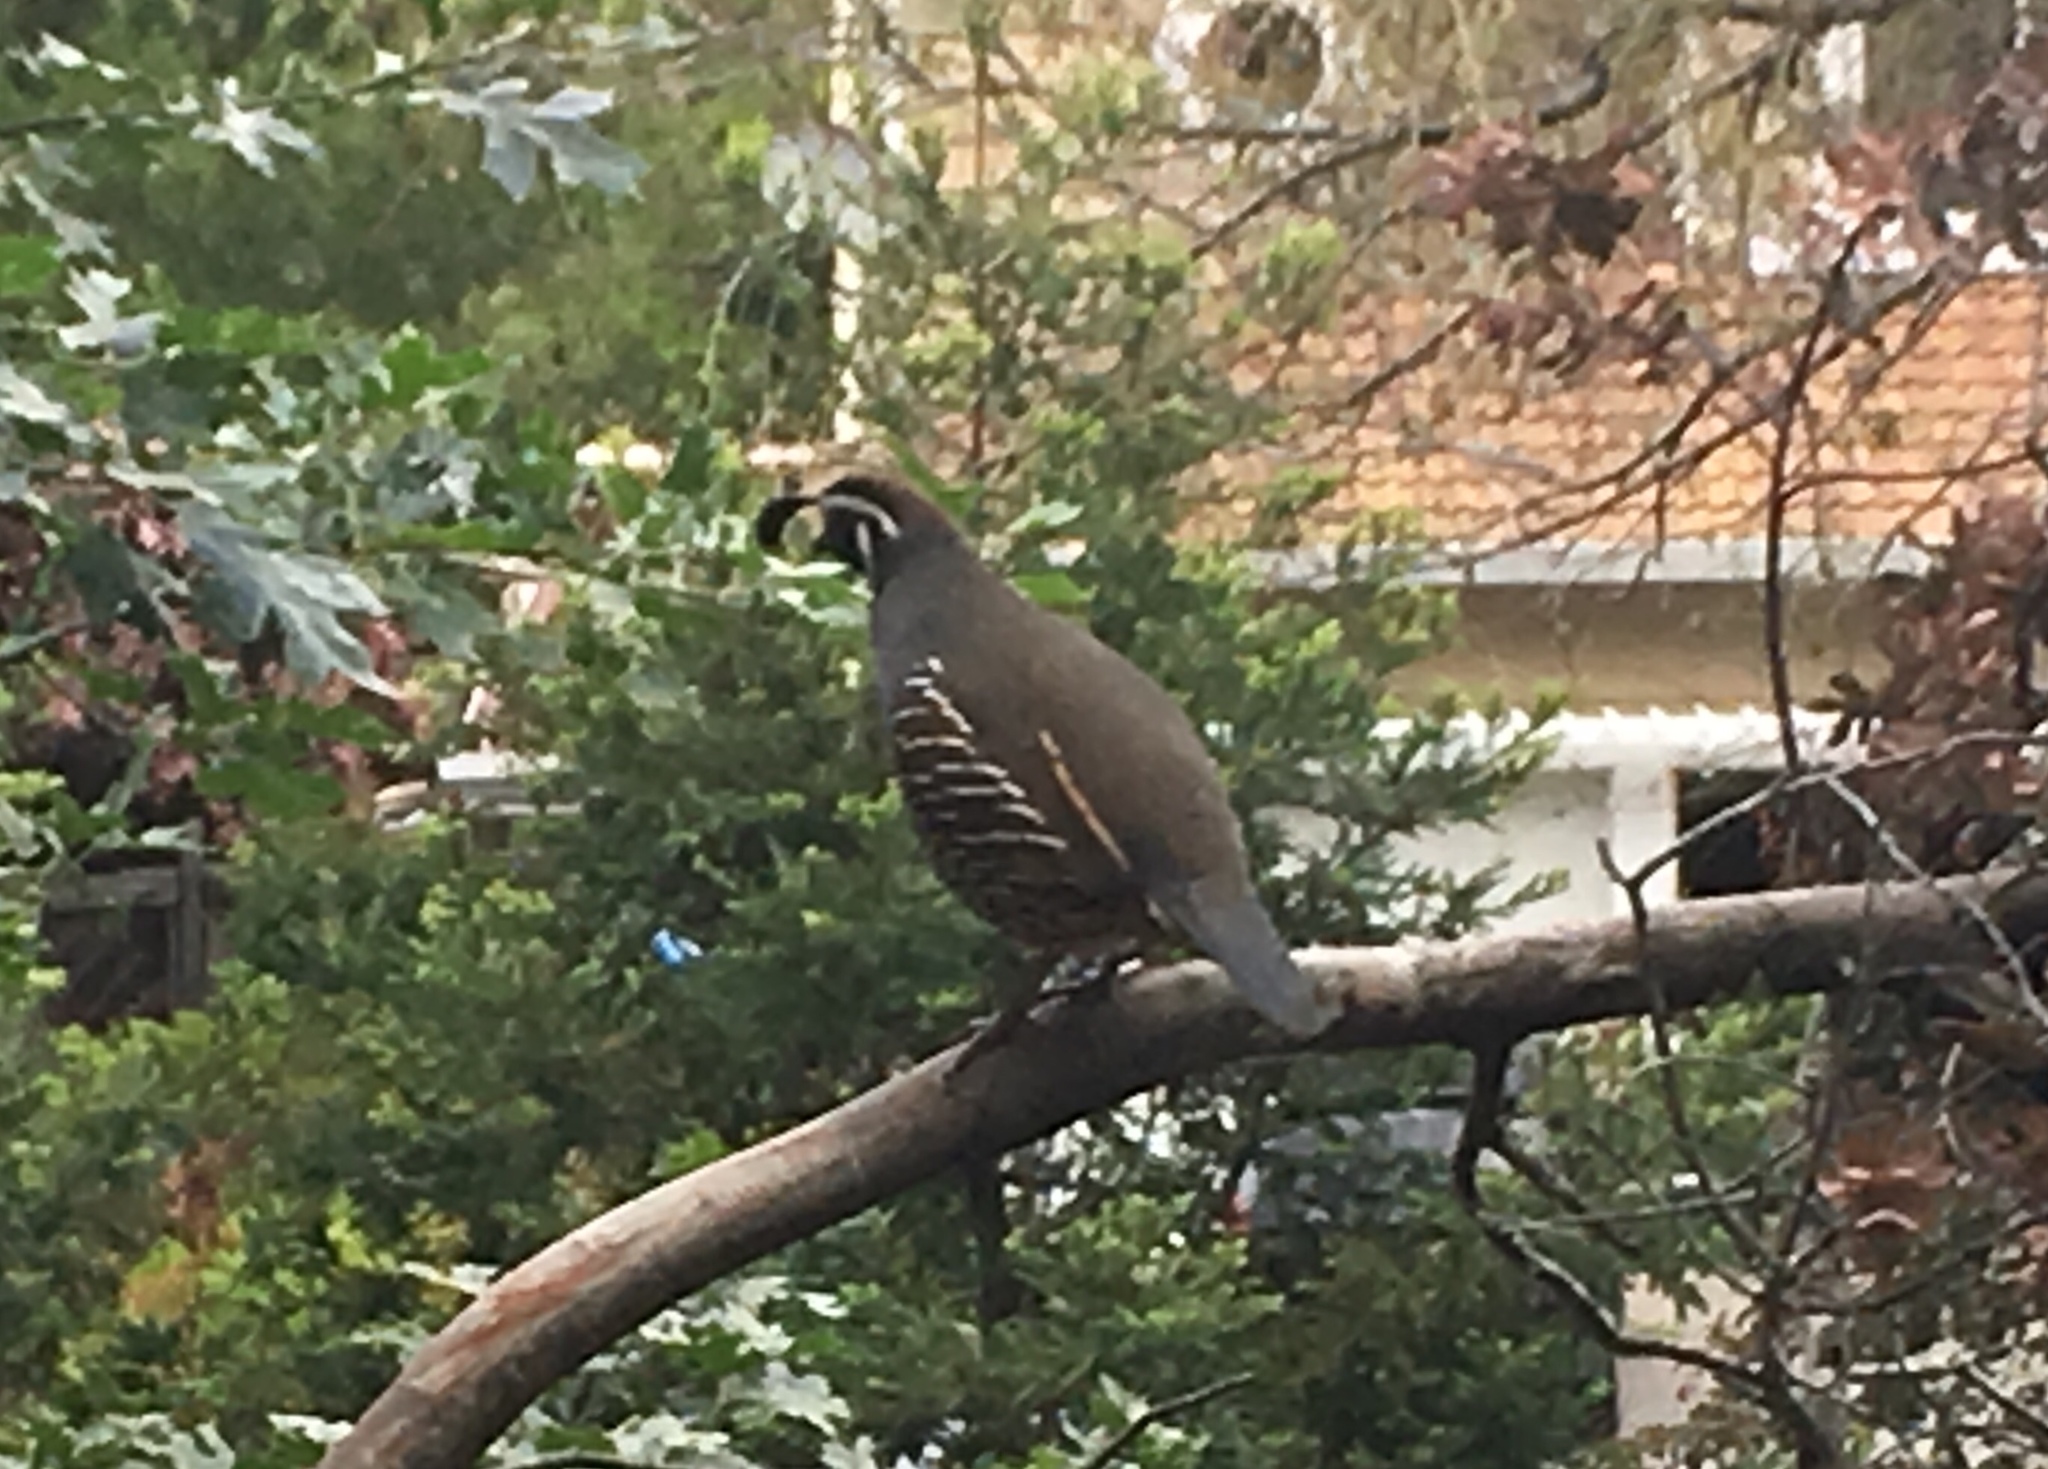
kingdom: Animalia
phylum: Chordata
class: Aves
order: Galliformes
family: Odontophoridae
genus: Callipepla
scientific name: Callipepla californica
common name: California quail
